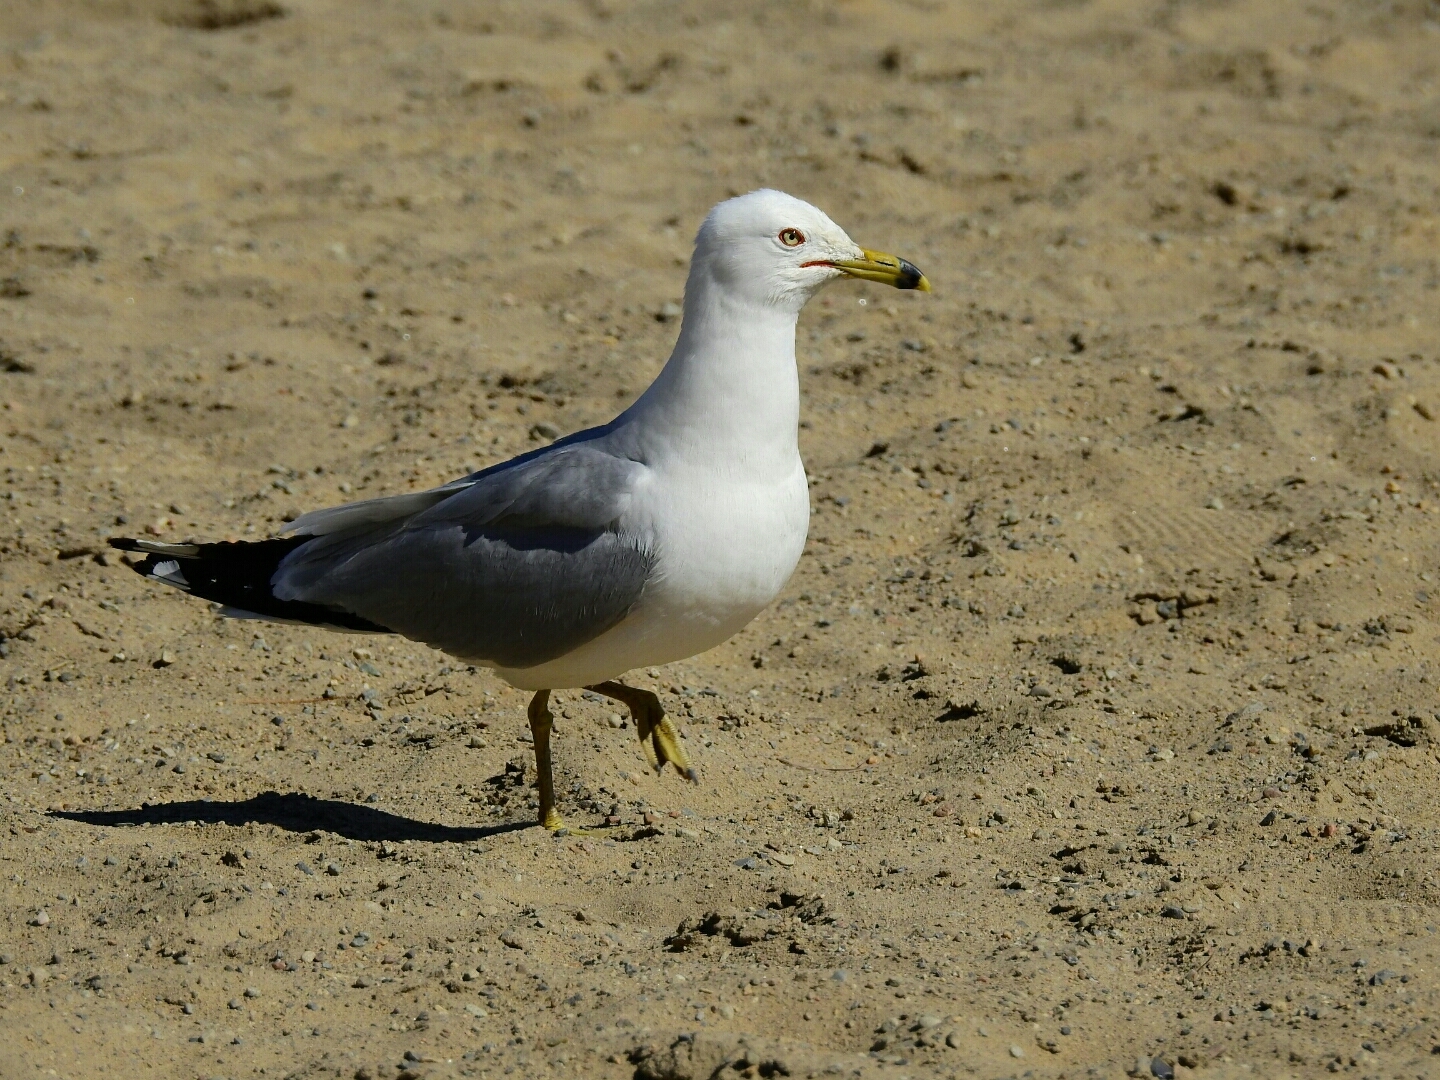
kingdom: Animalia
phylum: Chordata
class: Aves
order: Charadriiformes
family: Laridae
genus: Larus
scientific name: Larus delawarensis
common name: Ring-billed gull
